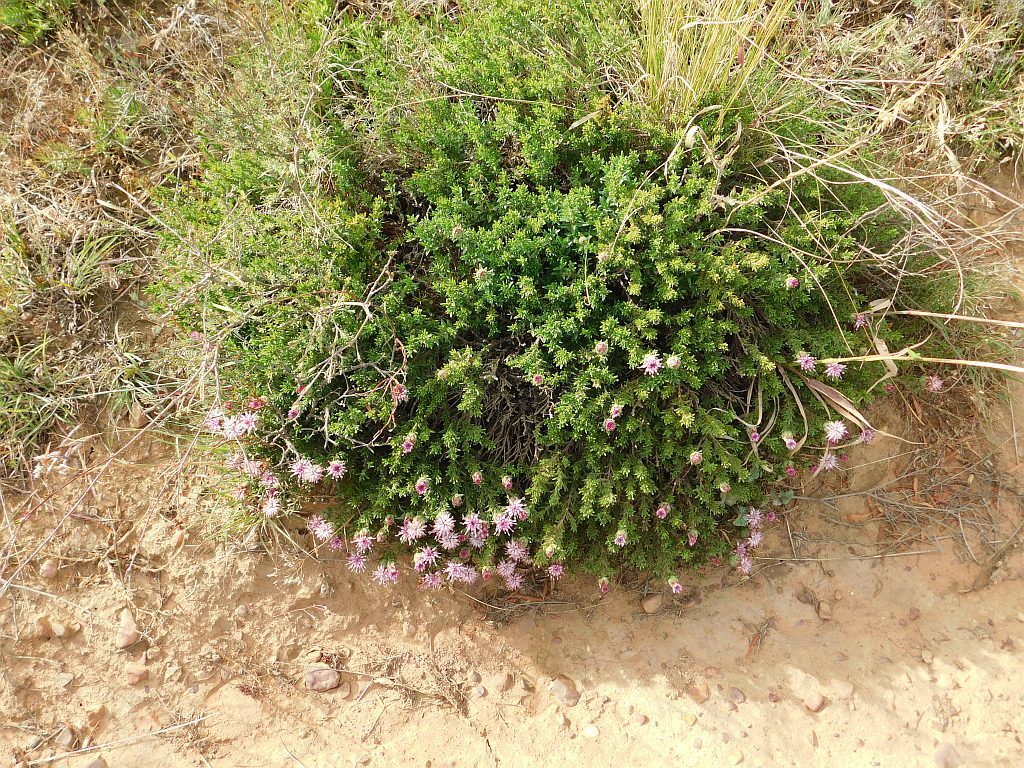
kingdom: Plantae
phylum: Tracheophyta
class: Magnoliopsida
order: Asterales
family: Asteraceae
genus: Pteronia
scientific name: Pteronia hirsuta
